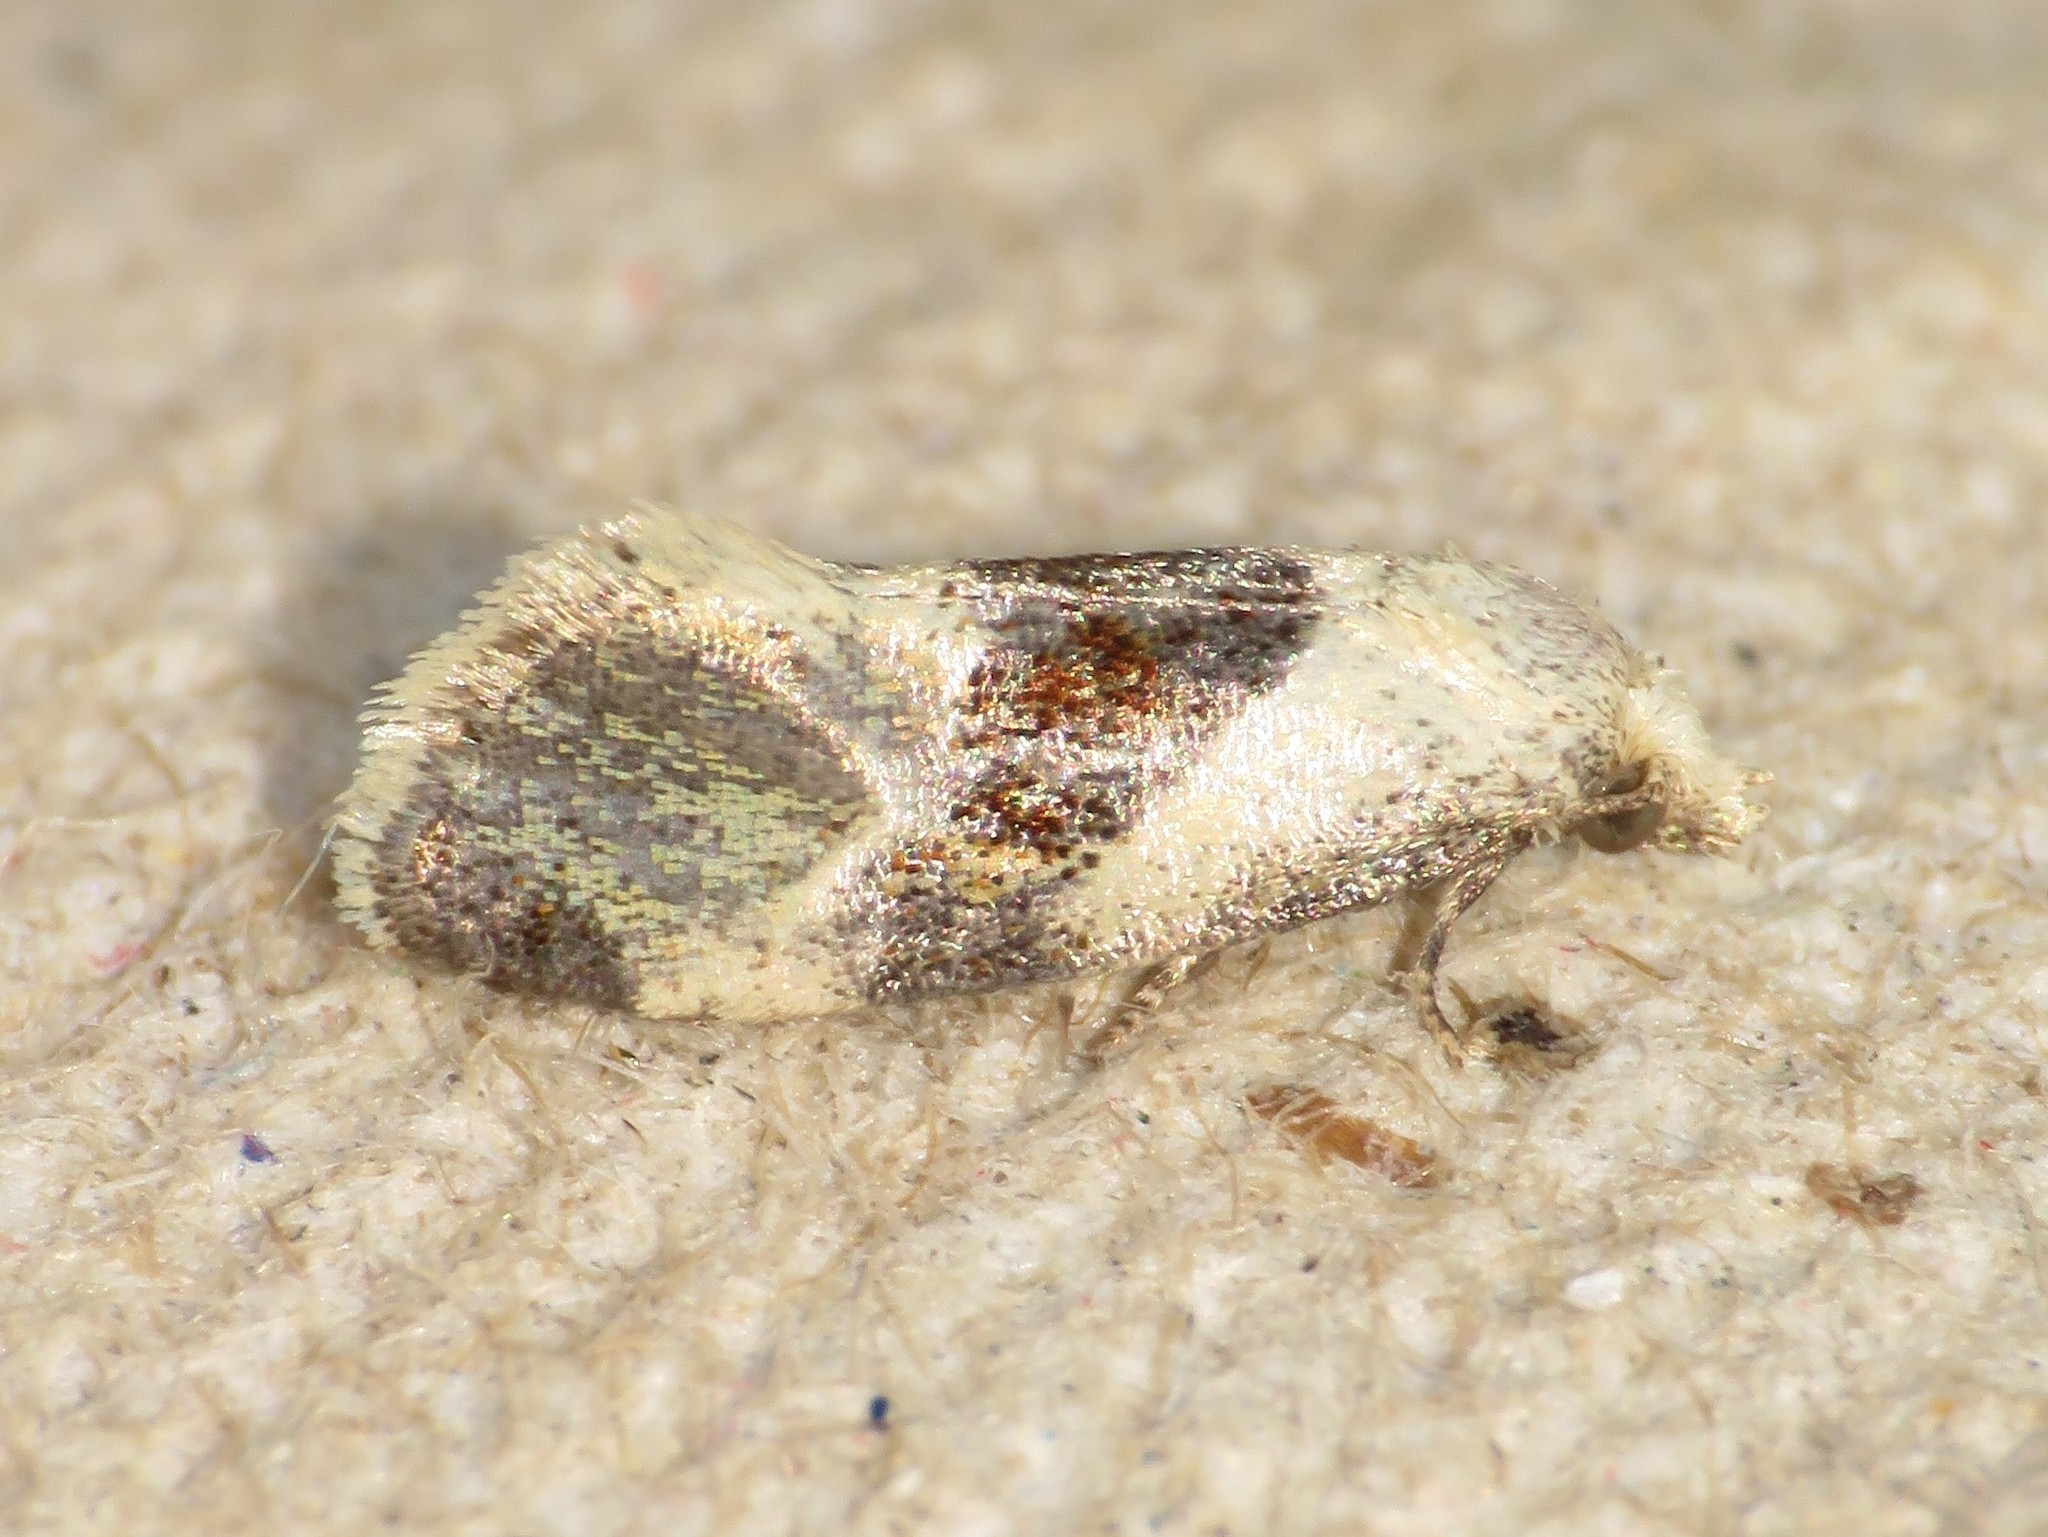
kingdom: Animalia
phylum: Arthropoda
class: Insecta
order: Lepidoptera
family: Tortricidae
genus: Phalonidia
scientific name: Phalonidia lepidana
